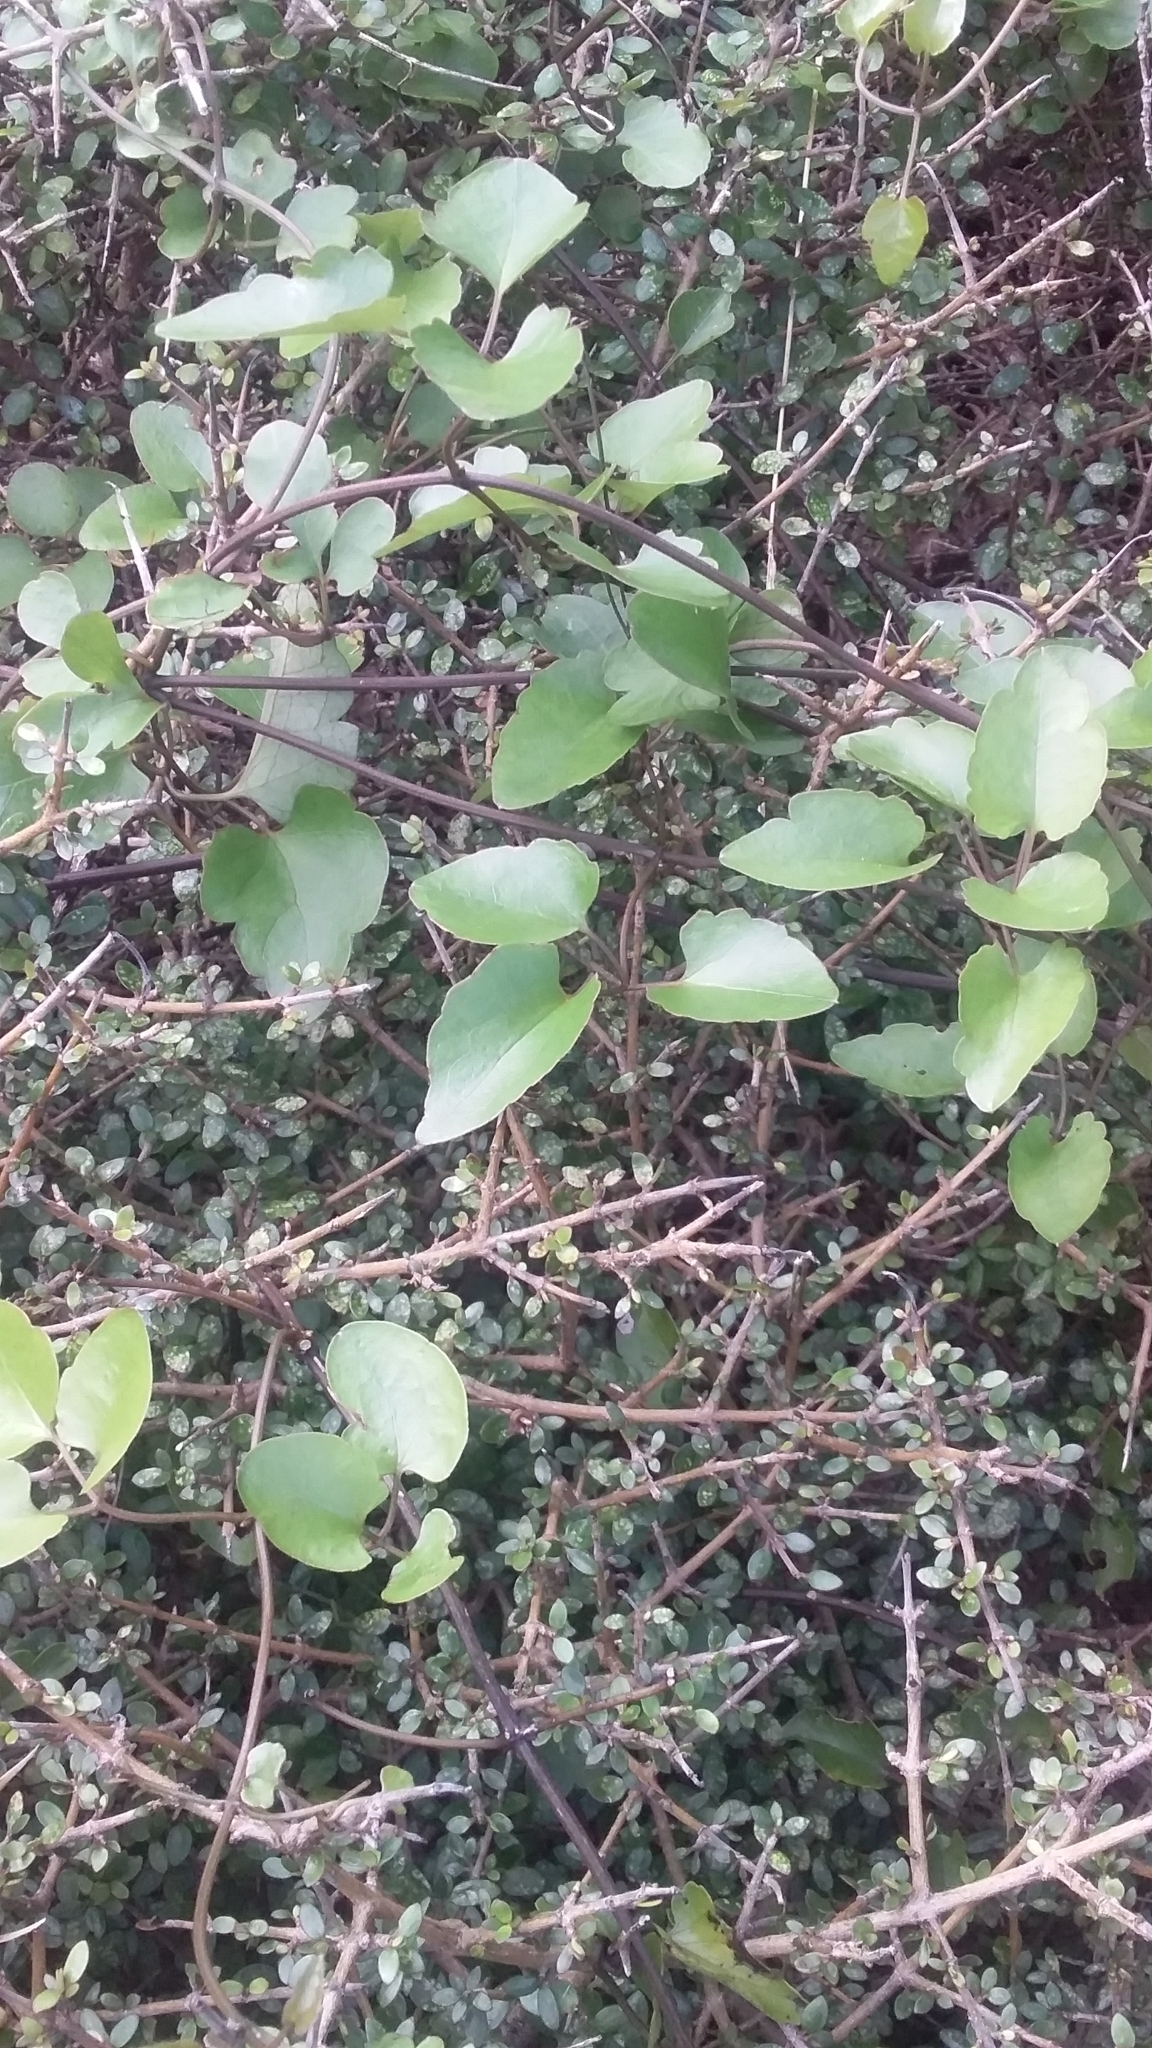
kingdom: Plantae
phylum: Tracheophyta
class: Magnoliopsida
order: Ranunculales
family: Ranunculaceae
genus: Clematis
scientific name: Clematis forsteri
